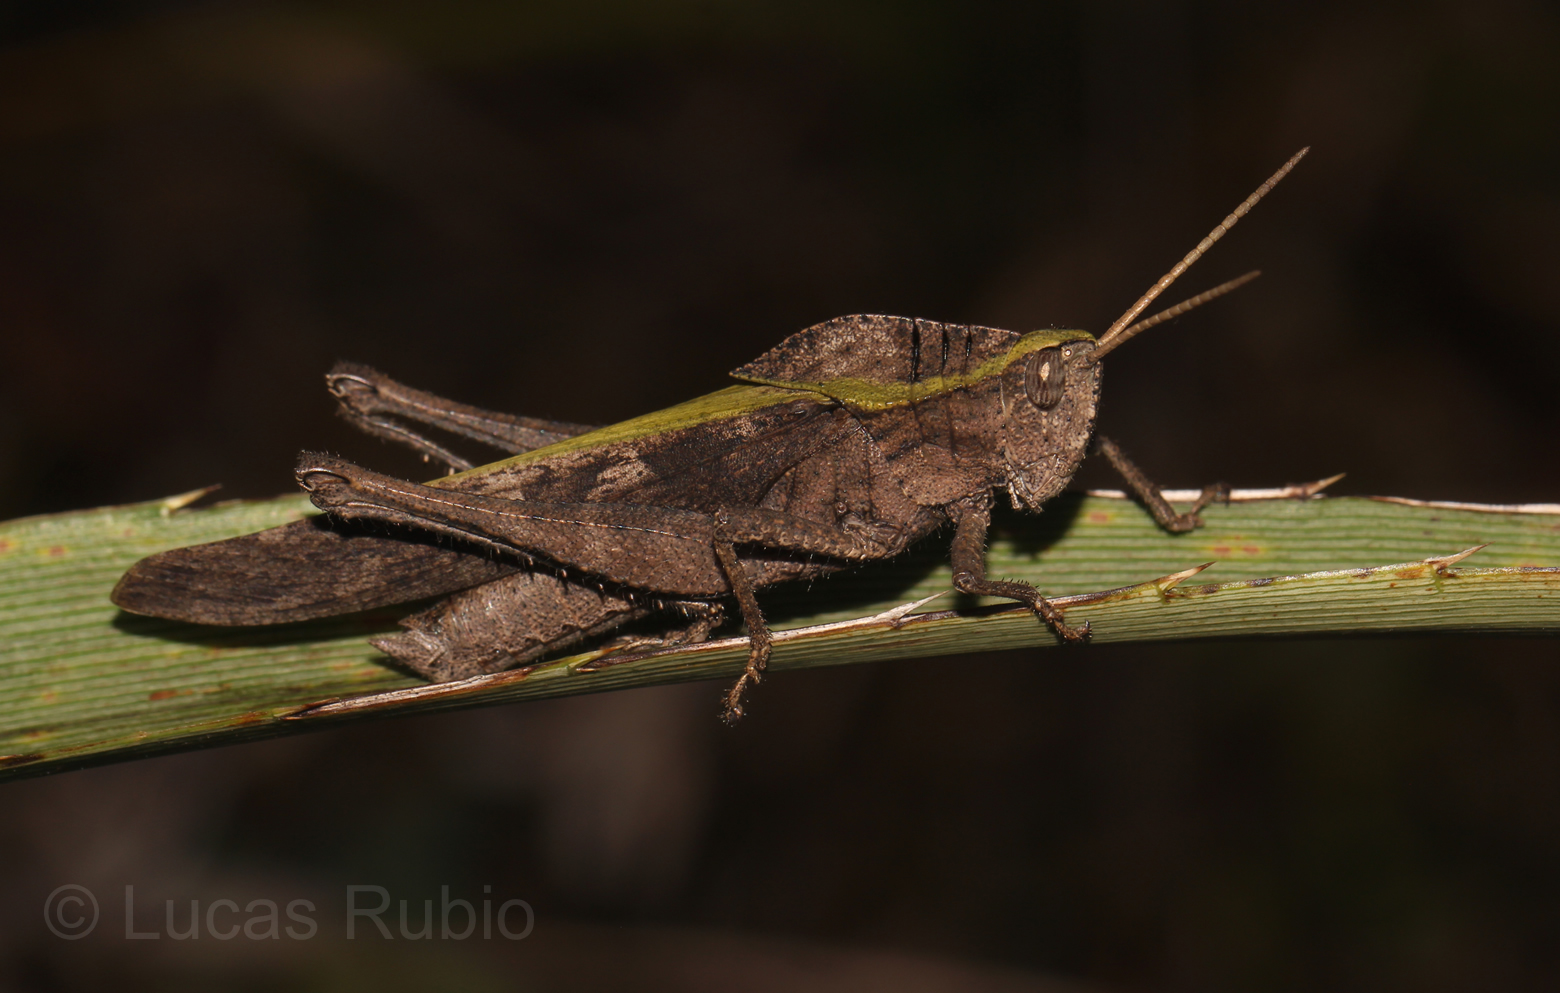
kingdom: Animalia
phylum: Arthropoda
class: Insecta
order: Orthoptera
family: Romaleidae
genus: Xyleus
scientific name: Xyleus discoideus
